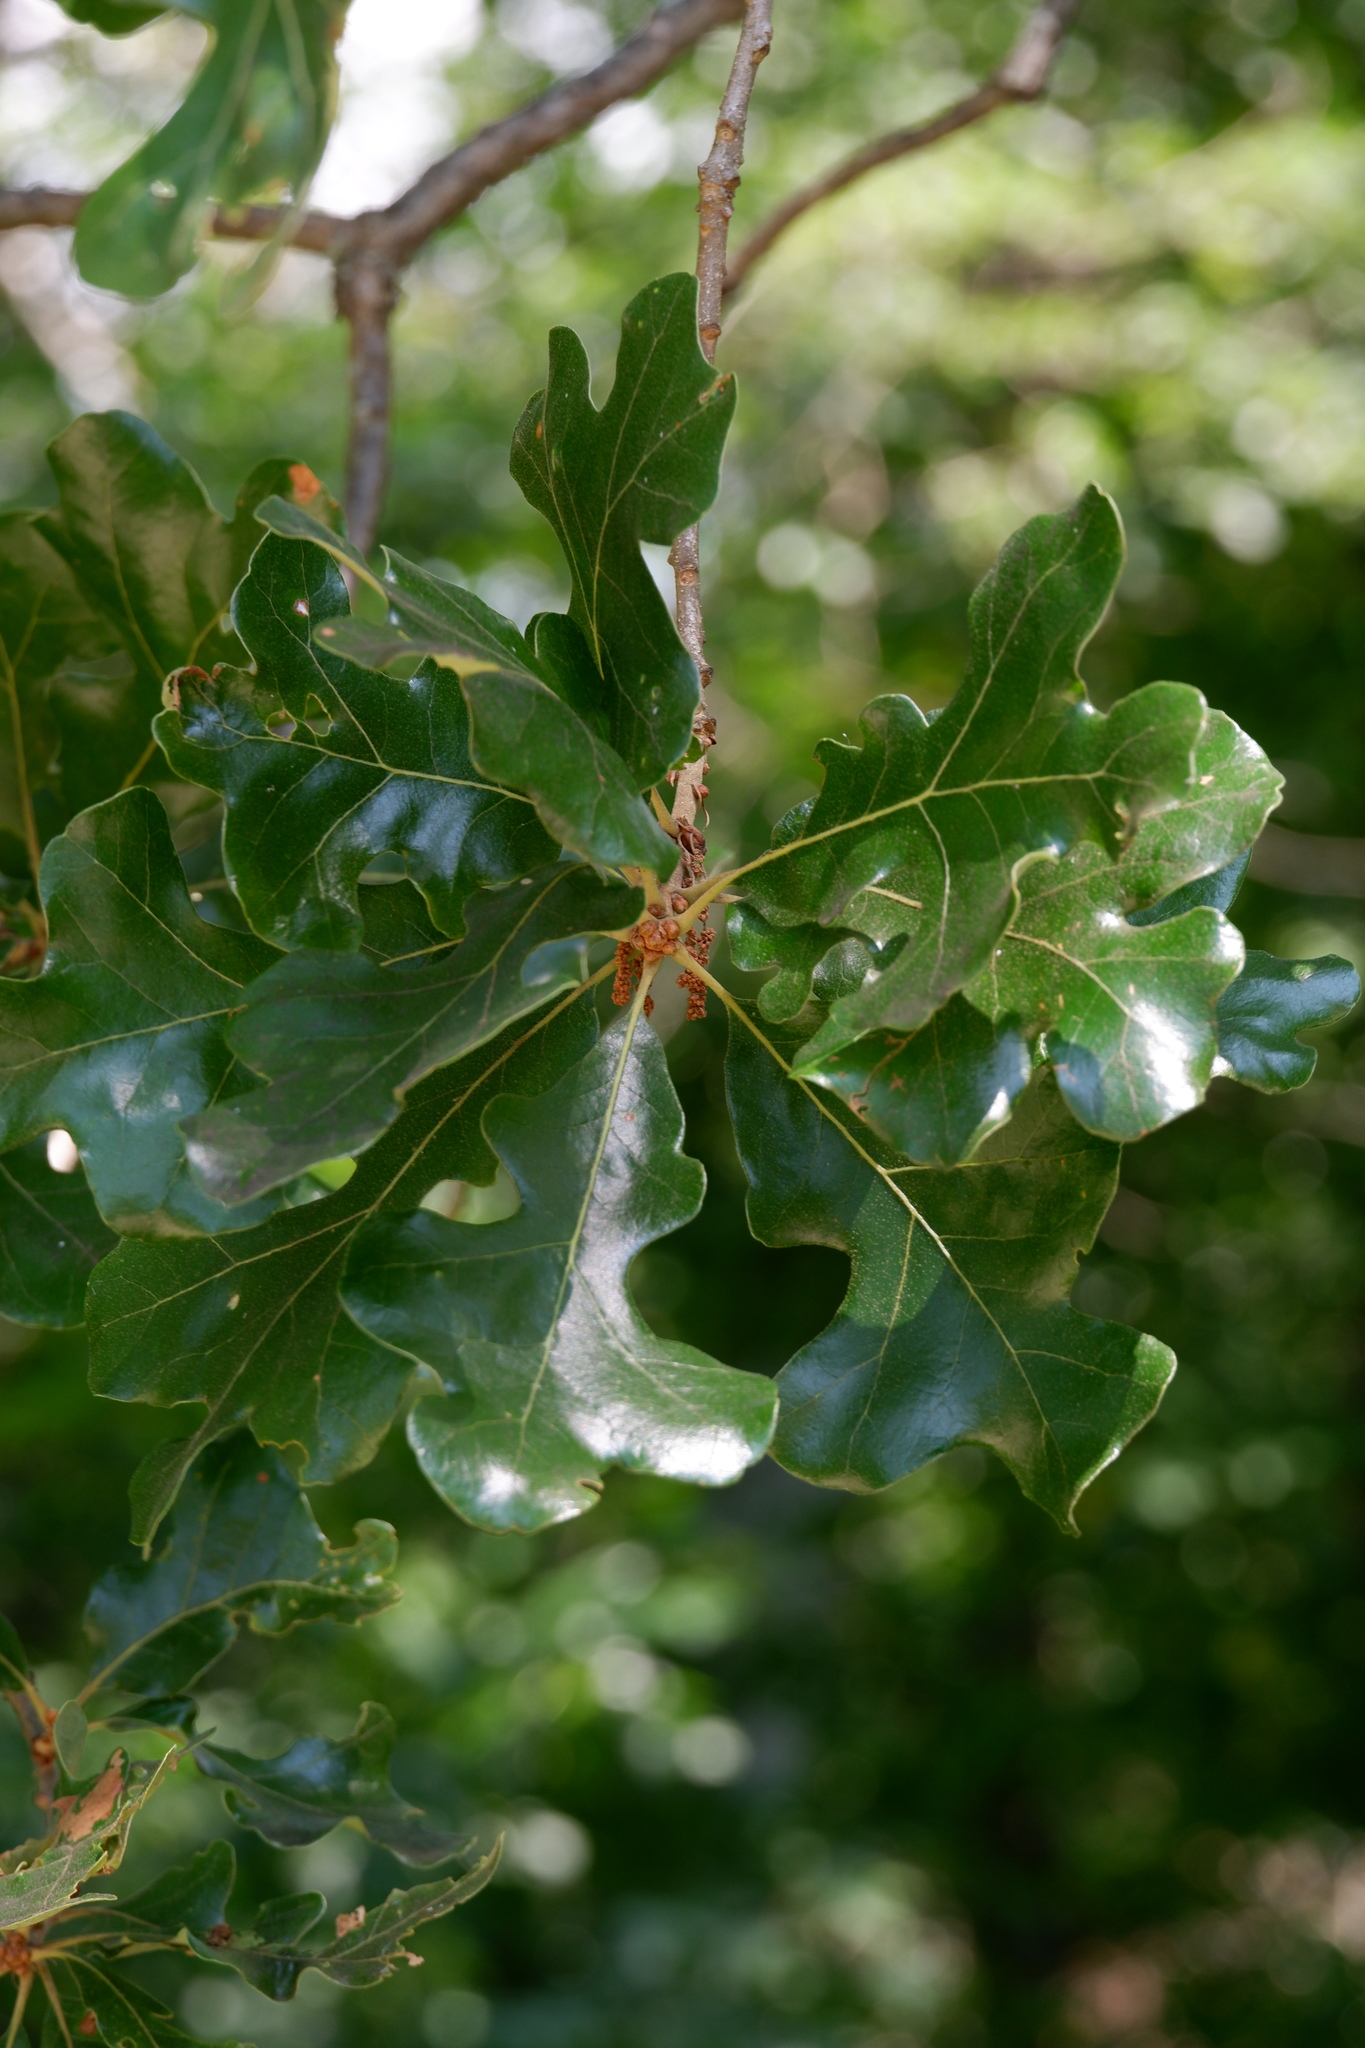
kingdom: Plantae
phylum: Tracheophyta
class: Magnoliopsida
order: Fagales
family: Fagaceae
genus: Quercus
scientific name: Quercus stellata
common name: Post oak
